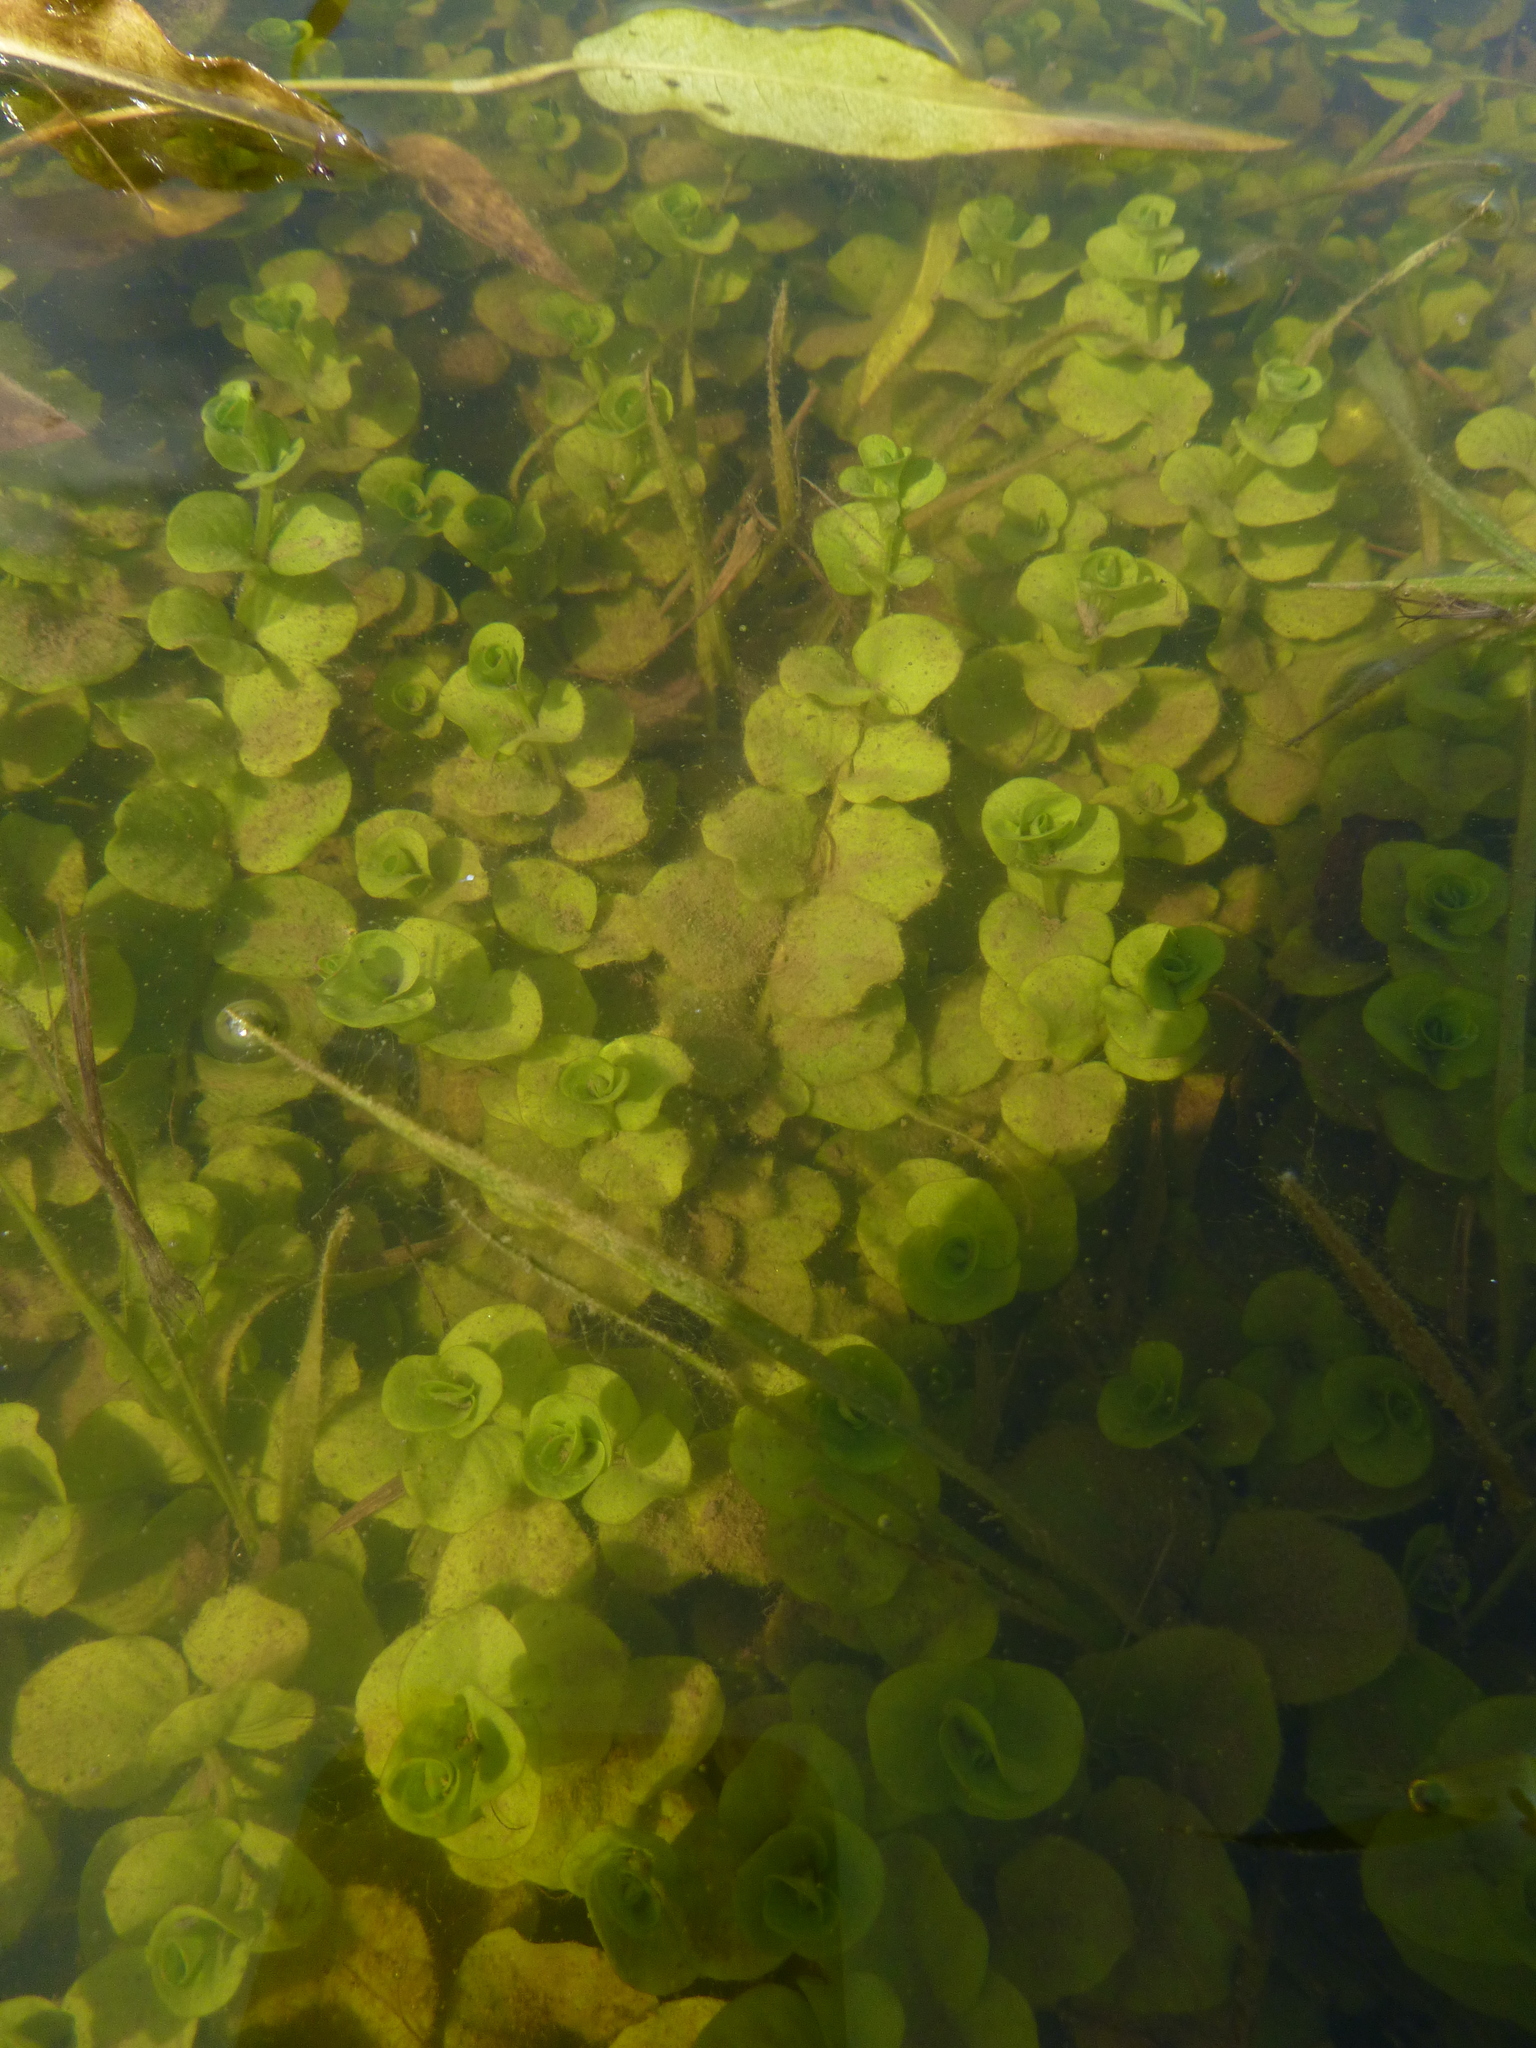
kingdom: Plantae
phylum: Tracheophyta
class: Magnoliopsida
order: Ericales
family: Primulaceae
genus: Lysimachia
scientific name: Lysimachia nummularia
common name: Moneywort
